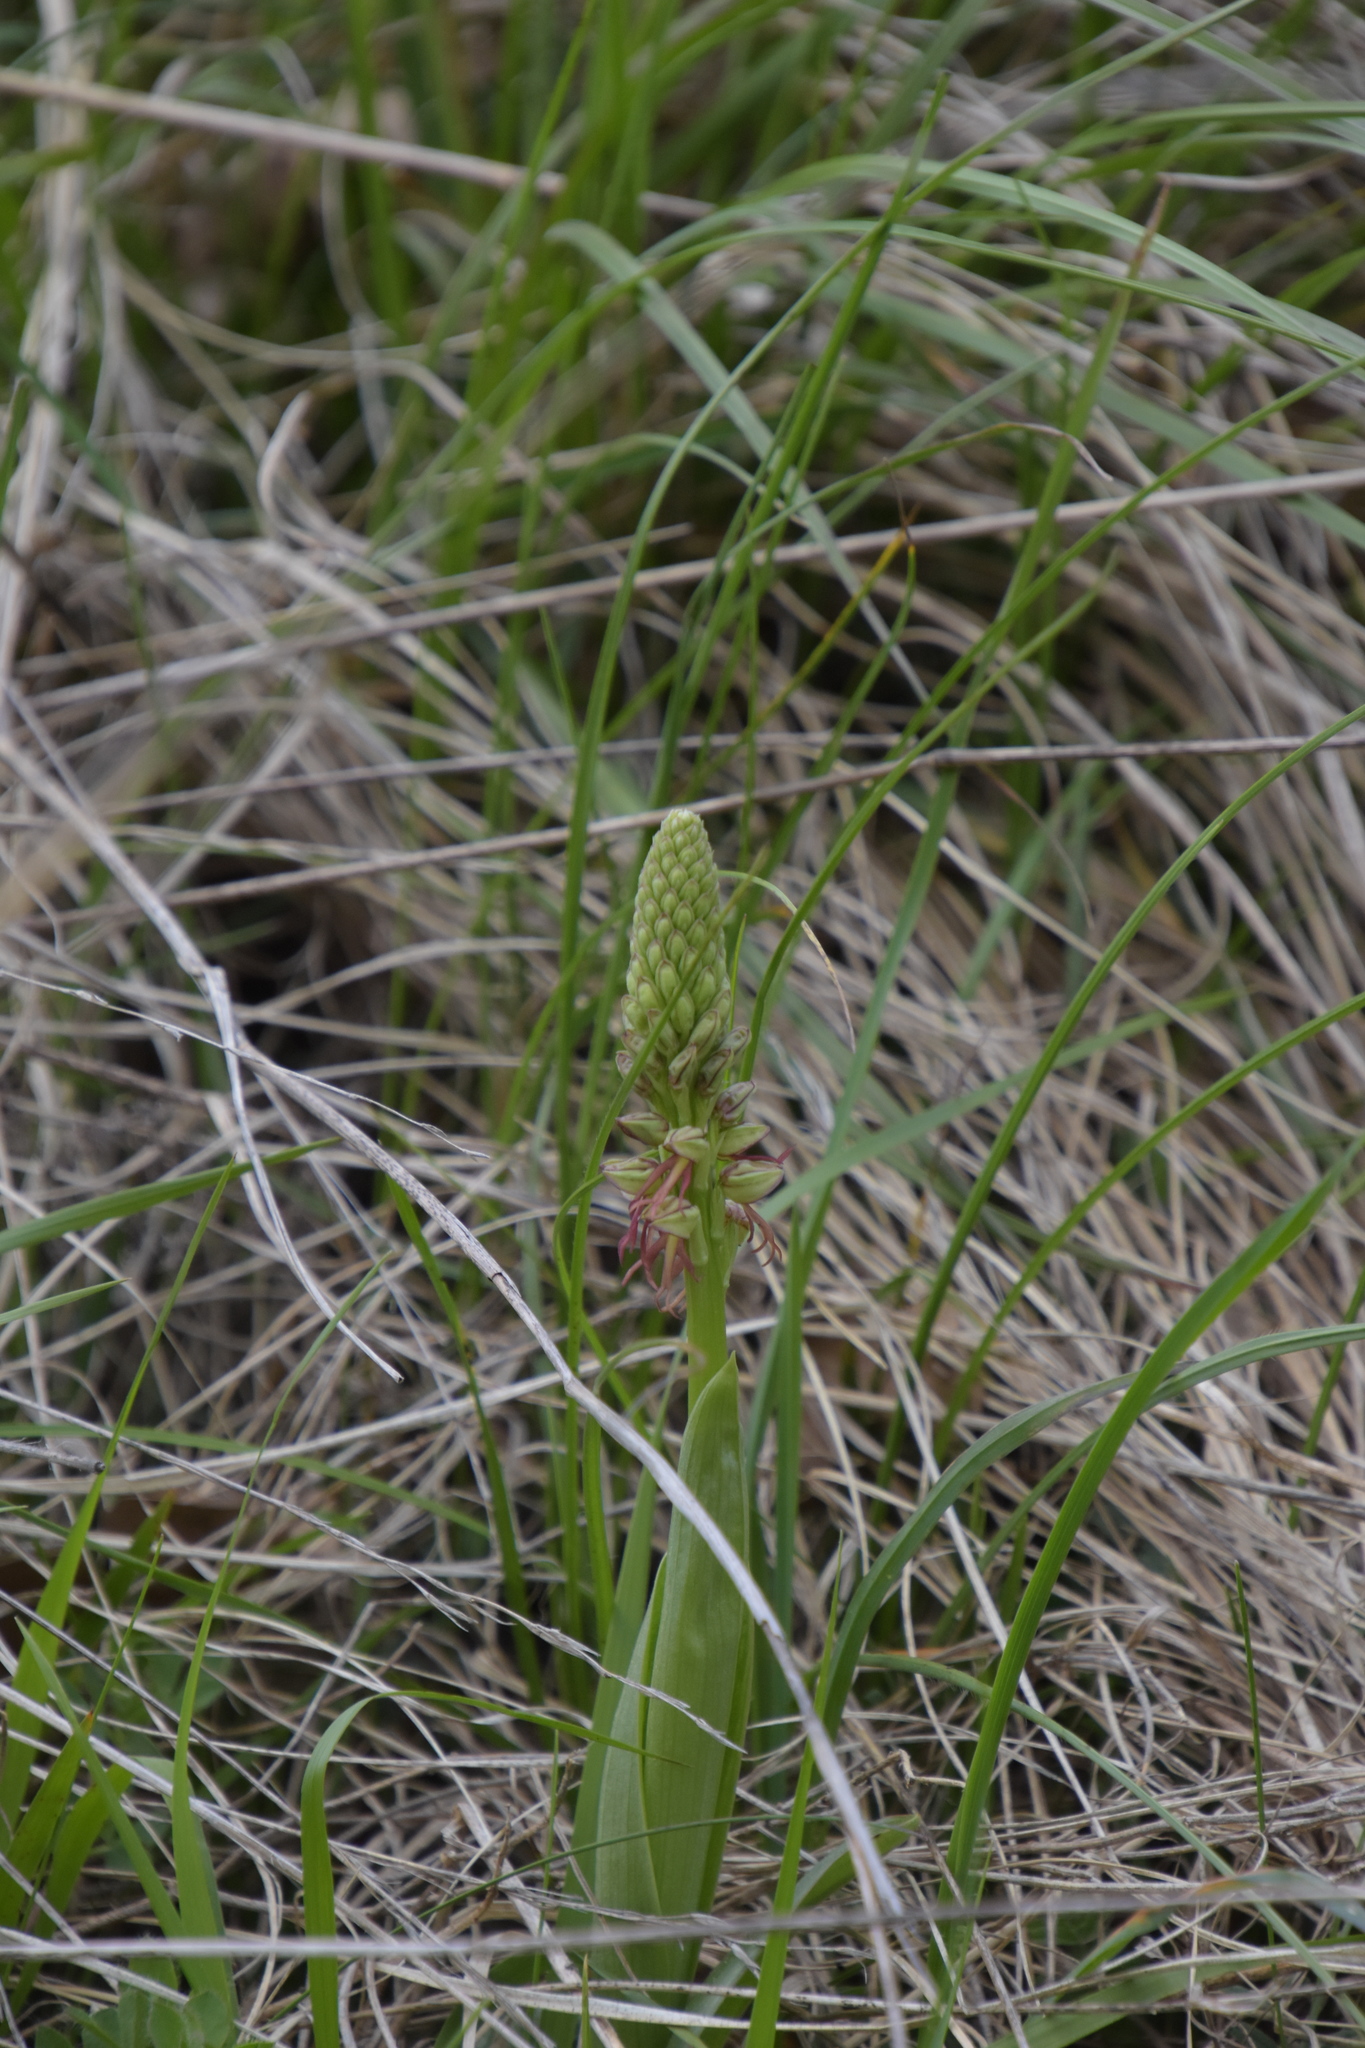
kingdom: Plantae
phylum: Tracheophyta
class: Liliopsida
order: Asparagales
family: Orchidaceae
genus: Orchis
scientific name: Orchis anthropophora
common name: Man orchid
